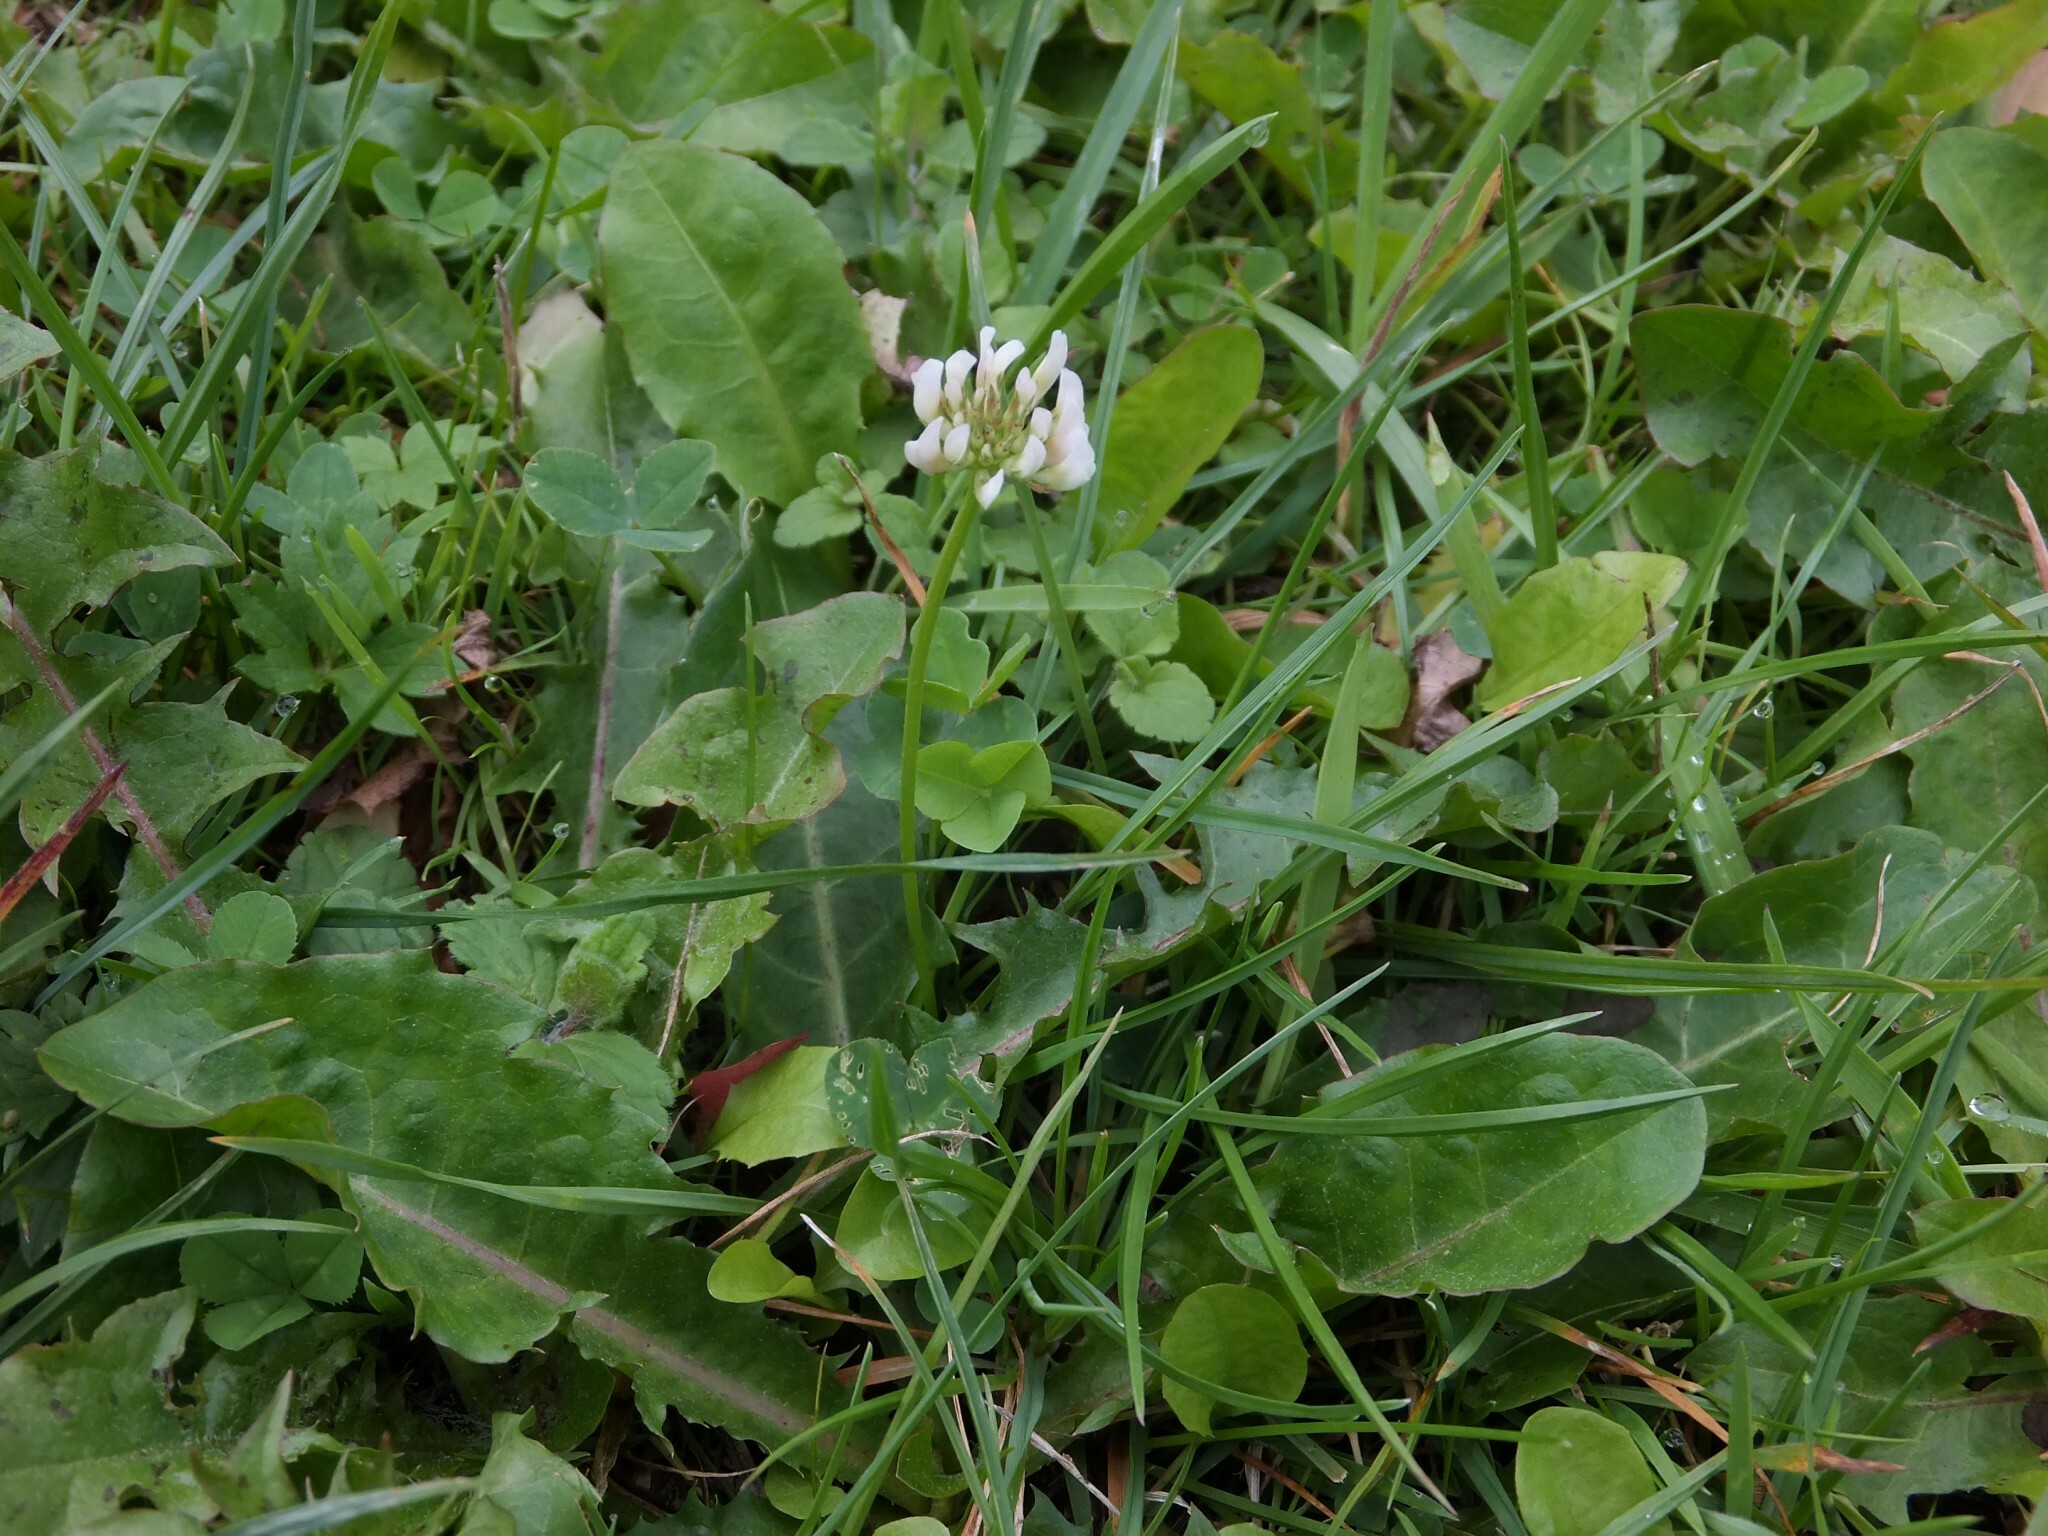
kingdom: Plantae
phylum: Tracheophyta
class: Magnoliopsida
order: Fabales
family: Fabaceae
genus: Trifolium
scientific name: Trifolium repens
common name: White clover
